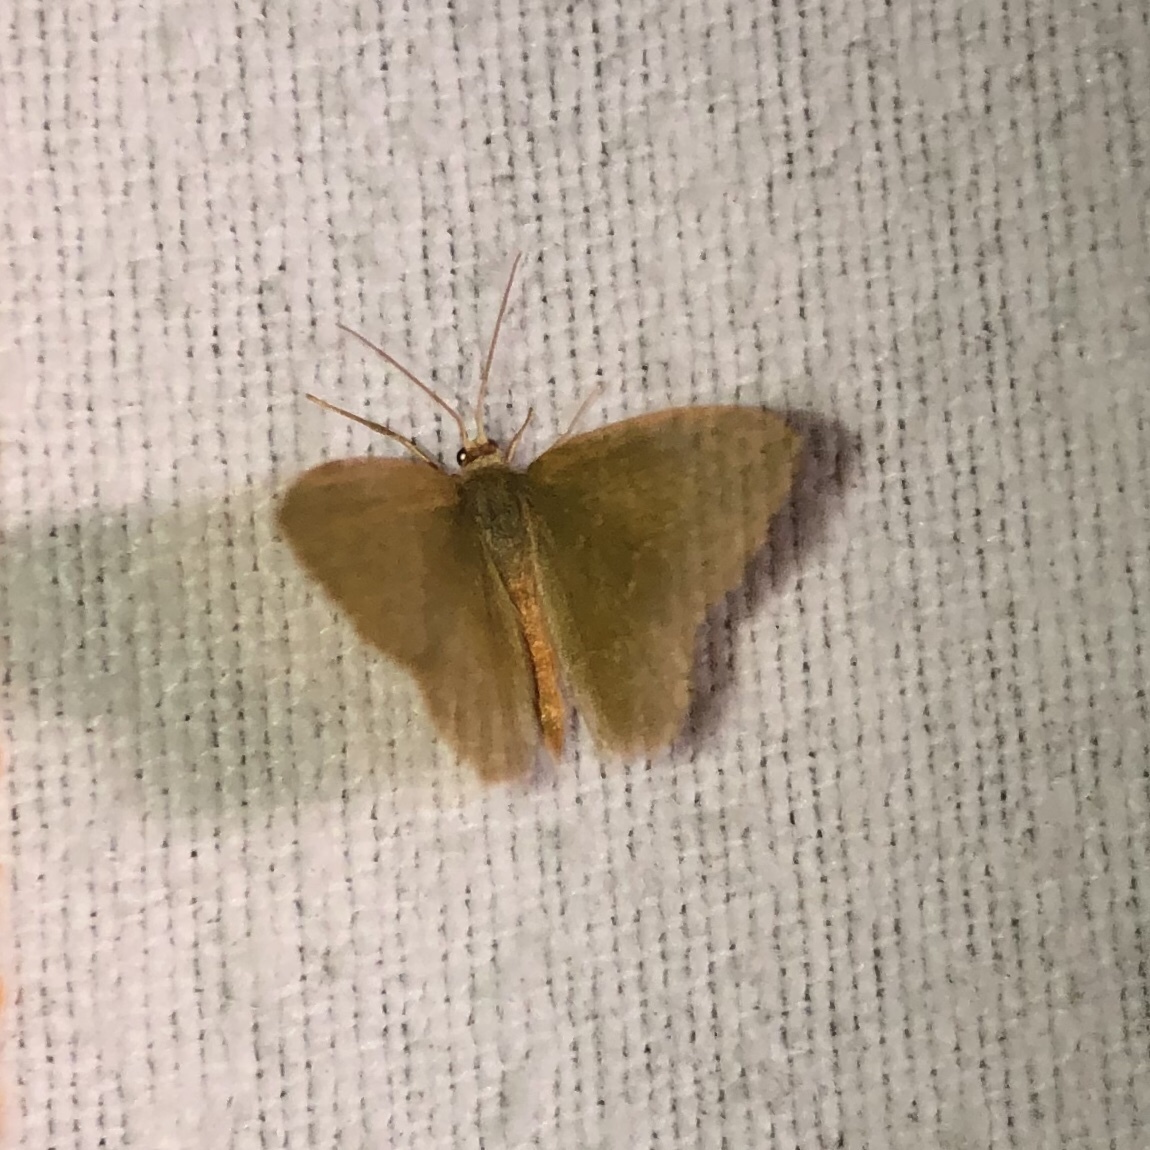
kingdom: Animalia
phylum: Arthropoda
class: Insecta
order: Lepidoptera
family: Geometridae
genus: Thalera
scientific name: Thalera pistasciaria
